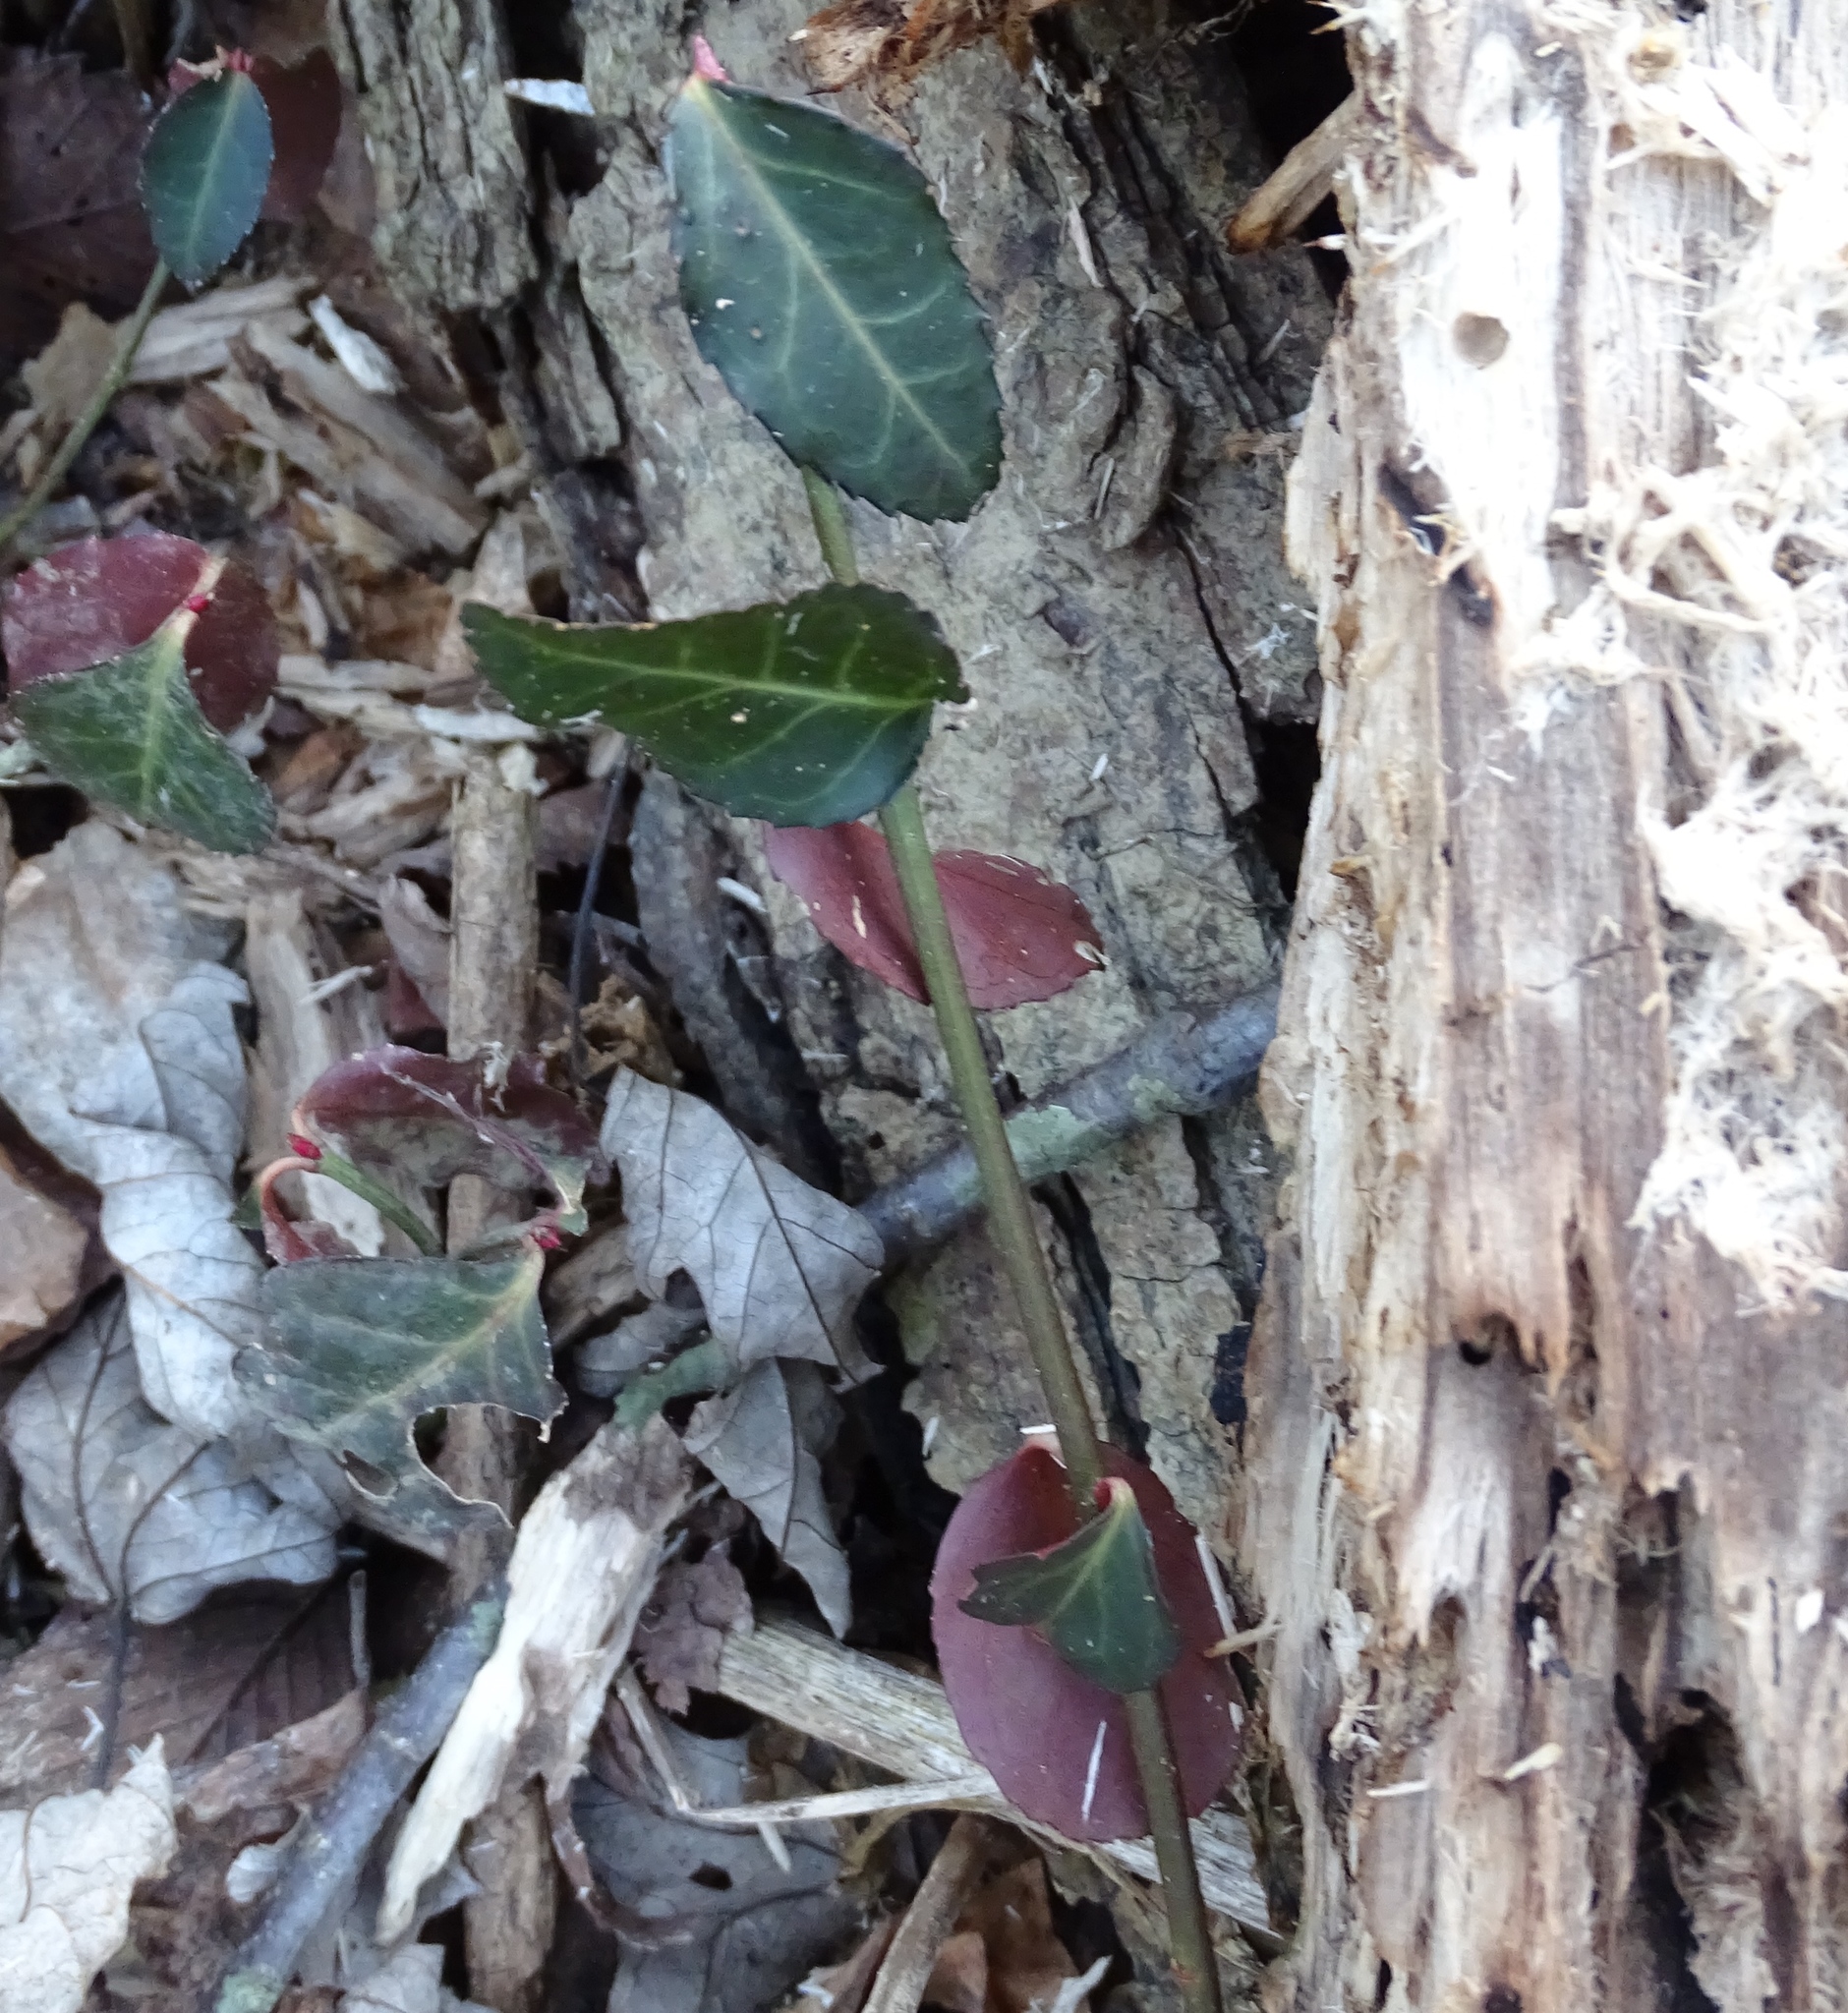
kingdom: Plantae
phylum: Tracheophyta
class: Magnoliopsida
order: Celastrales
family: Celastraceae
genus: Euonymus
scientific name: Euonymus fortunei
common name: Climbing euonymus
